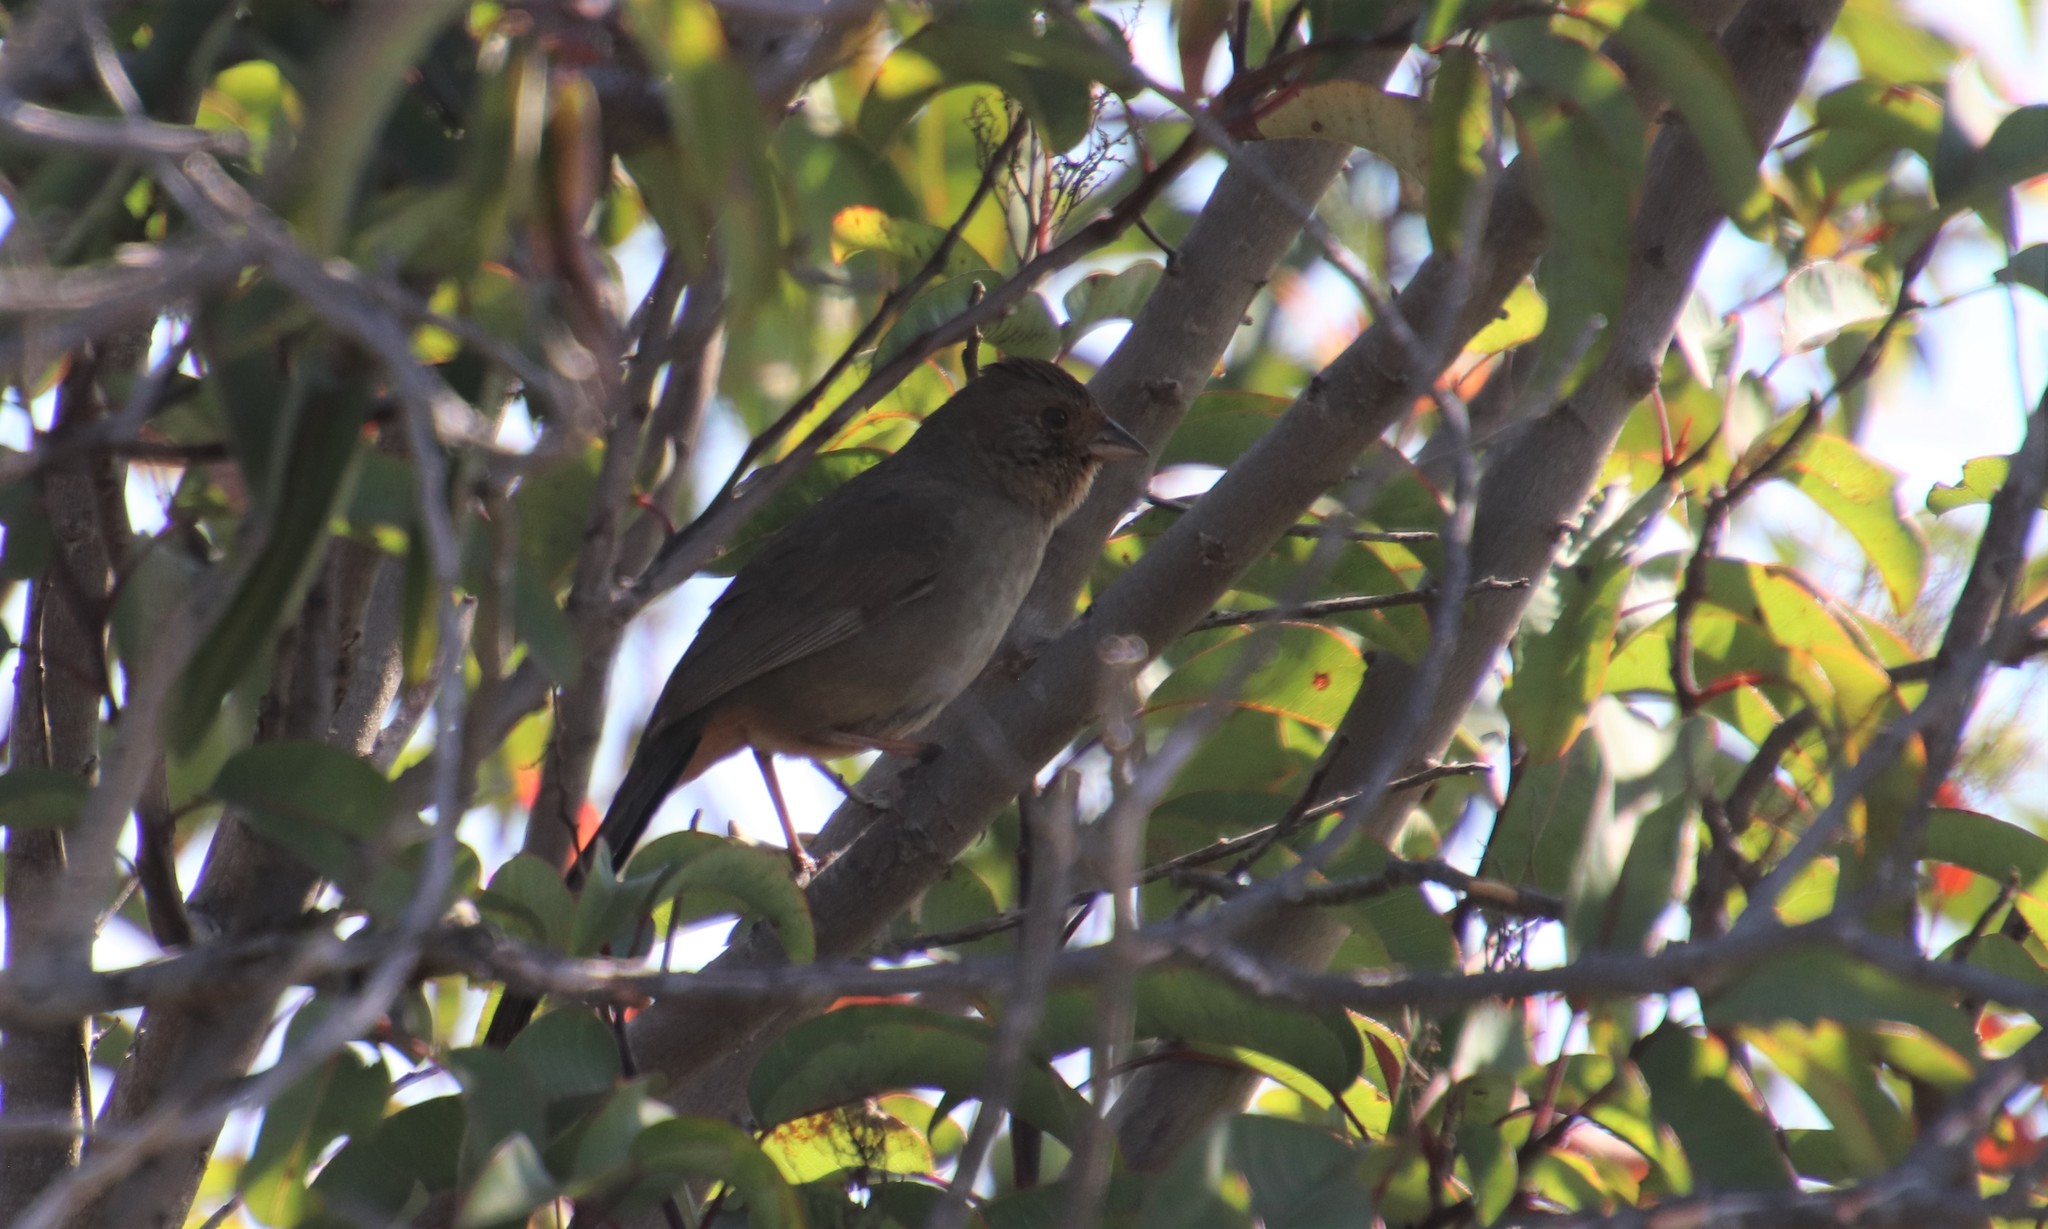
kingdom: Animalia
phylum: Chordata
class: Aves
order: Passeriformes
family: Passerellidae
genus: Melozone
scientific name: Melozone crissalis
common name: California towhee
